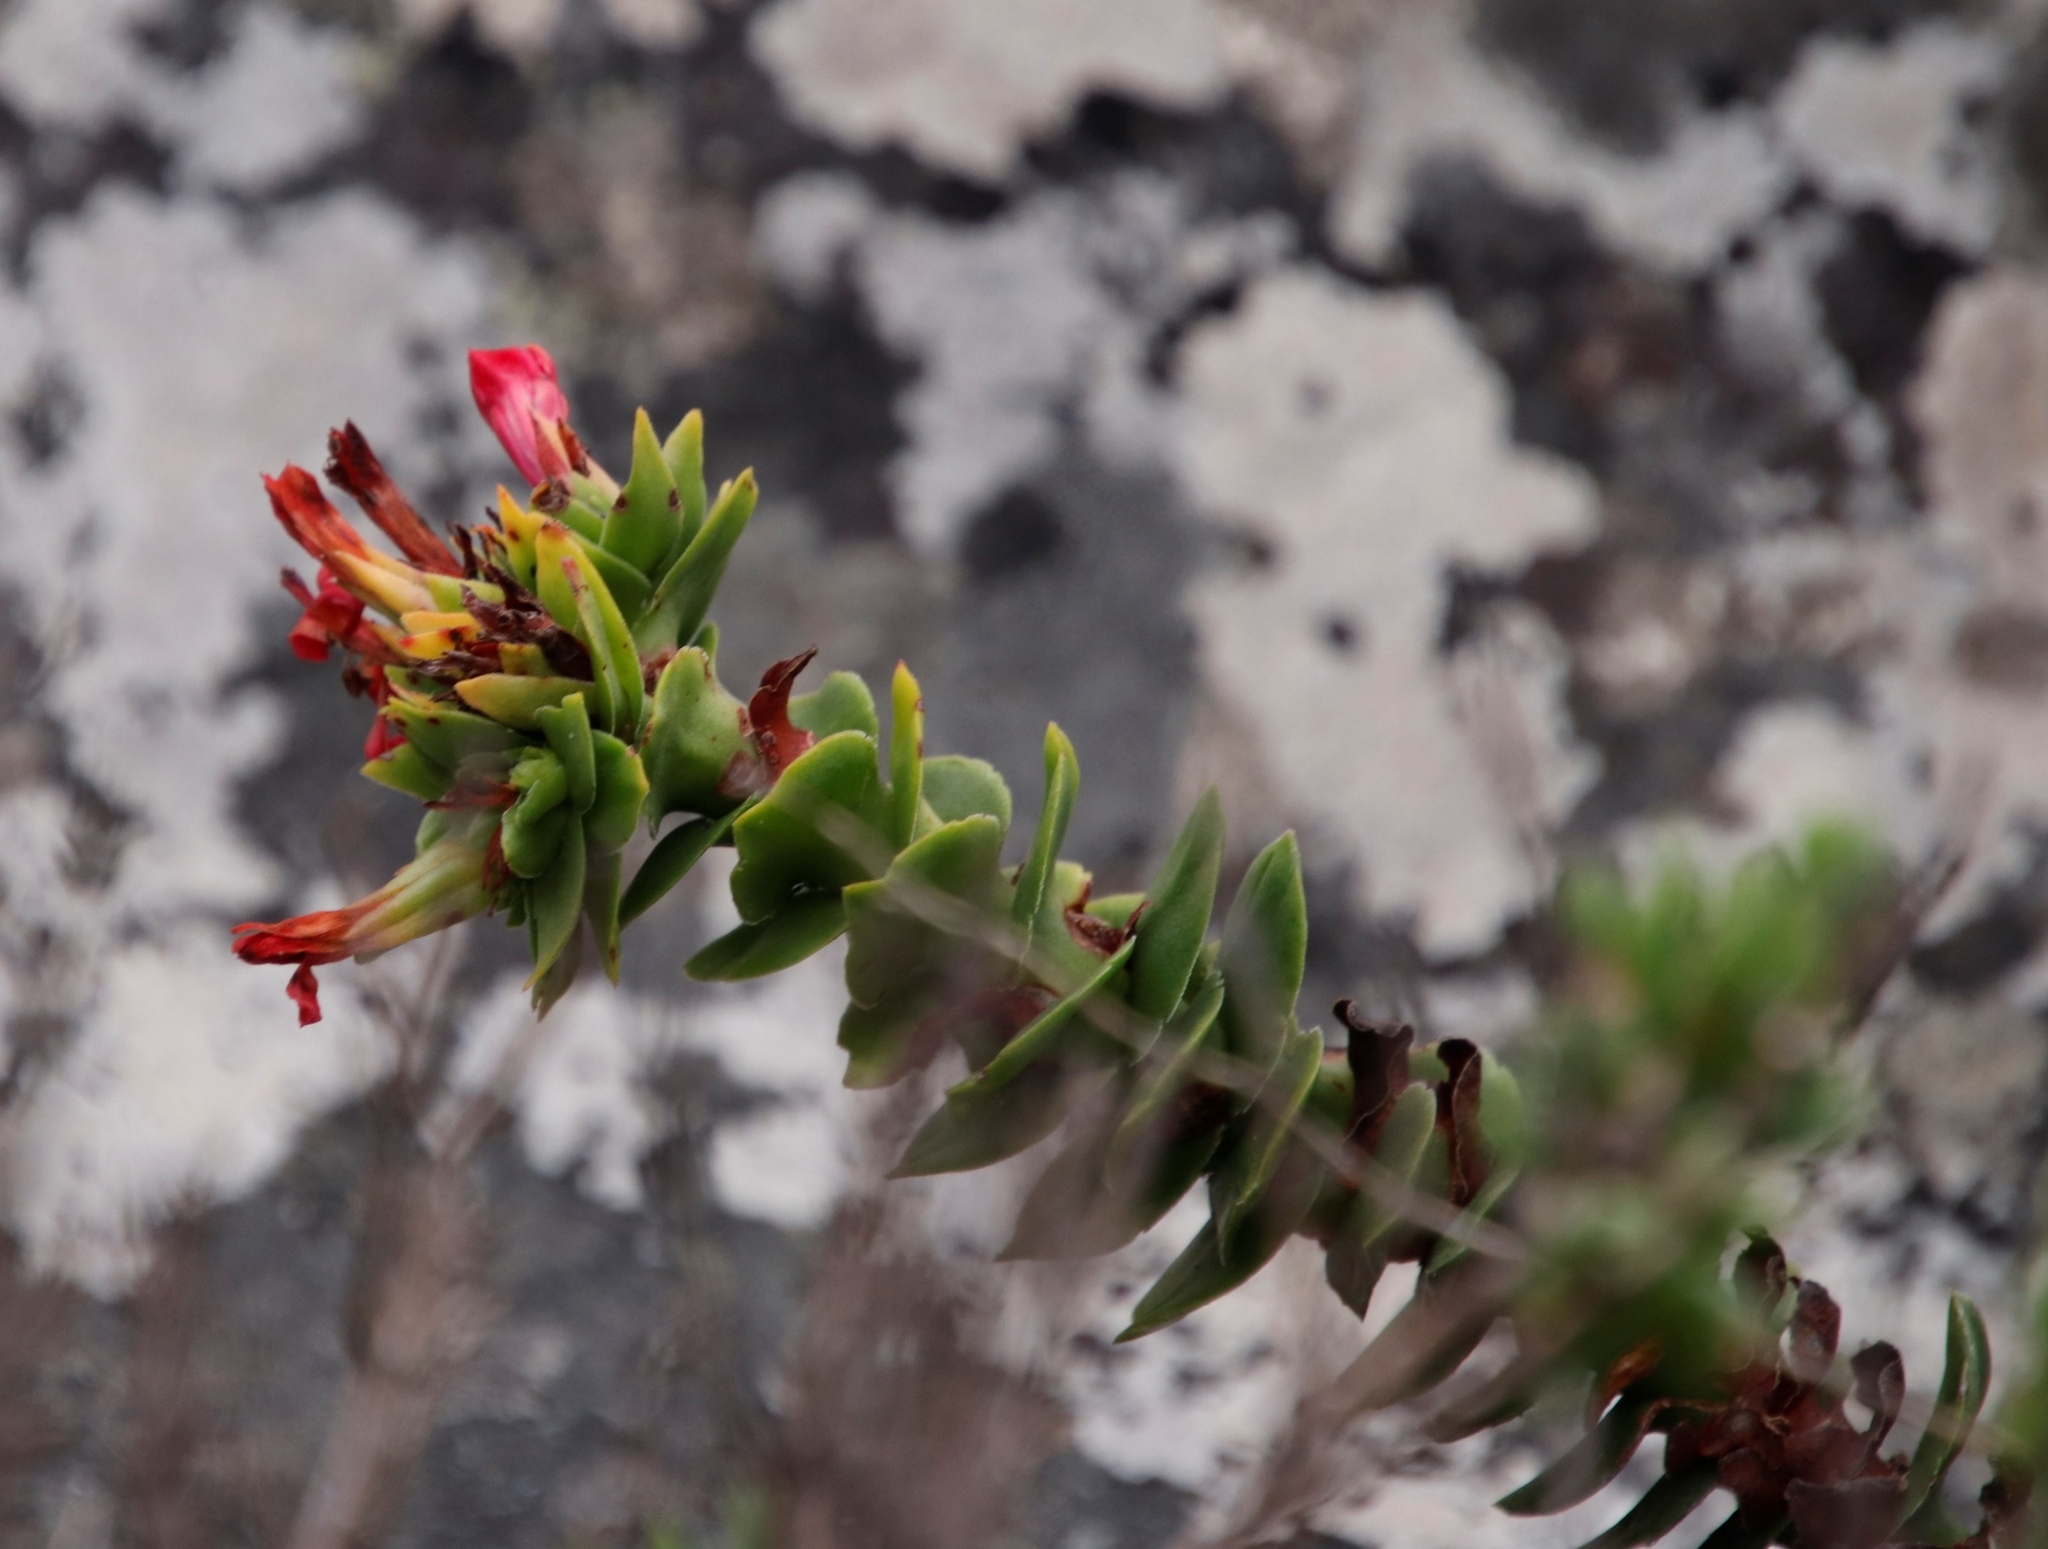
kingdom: Plantae
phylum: Tracheophyta
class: Magnoliopsida
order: Saxifragales
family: Crassulaceae
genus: Crassula
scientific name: Crassula coccinea
